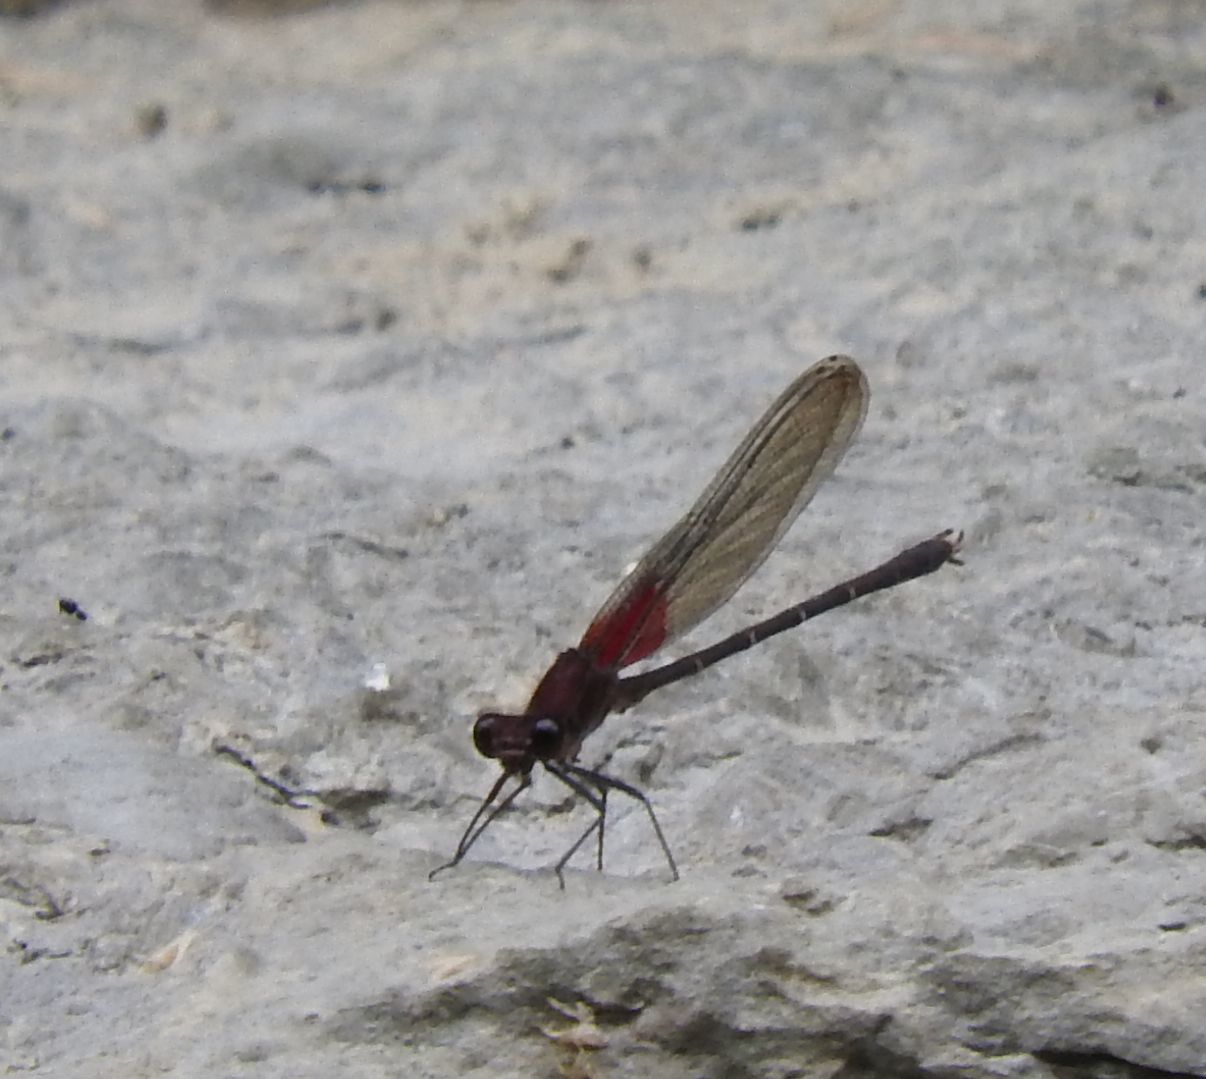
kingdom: Animalia
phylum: Arthropoda
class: Insecta
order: Odonata
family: Calopterygidae
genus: Hetaerina
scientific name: Hetaerina americana
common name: American rubyspot
